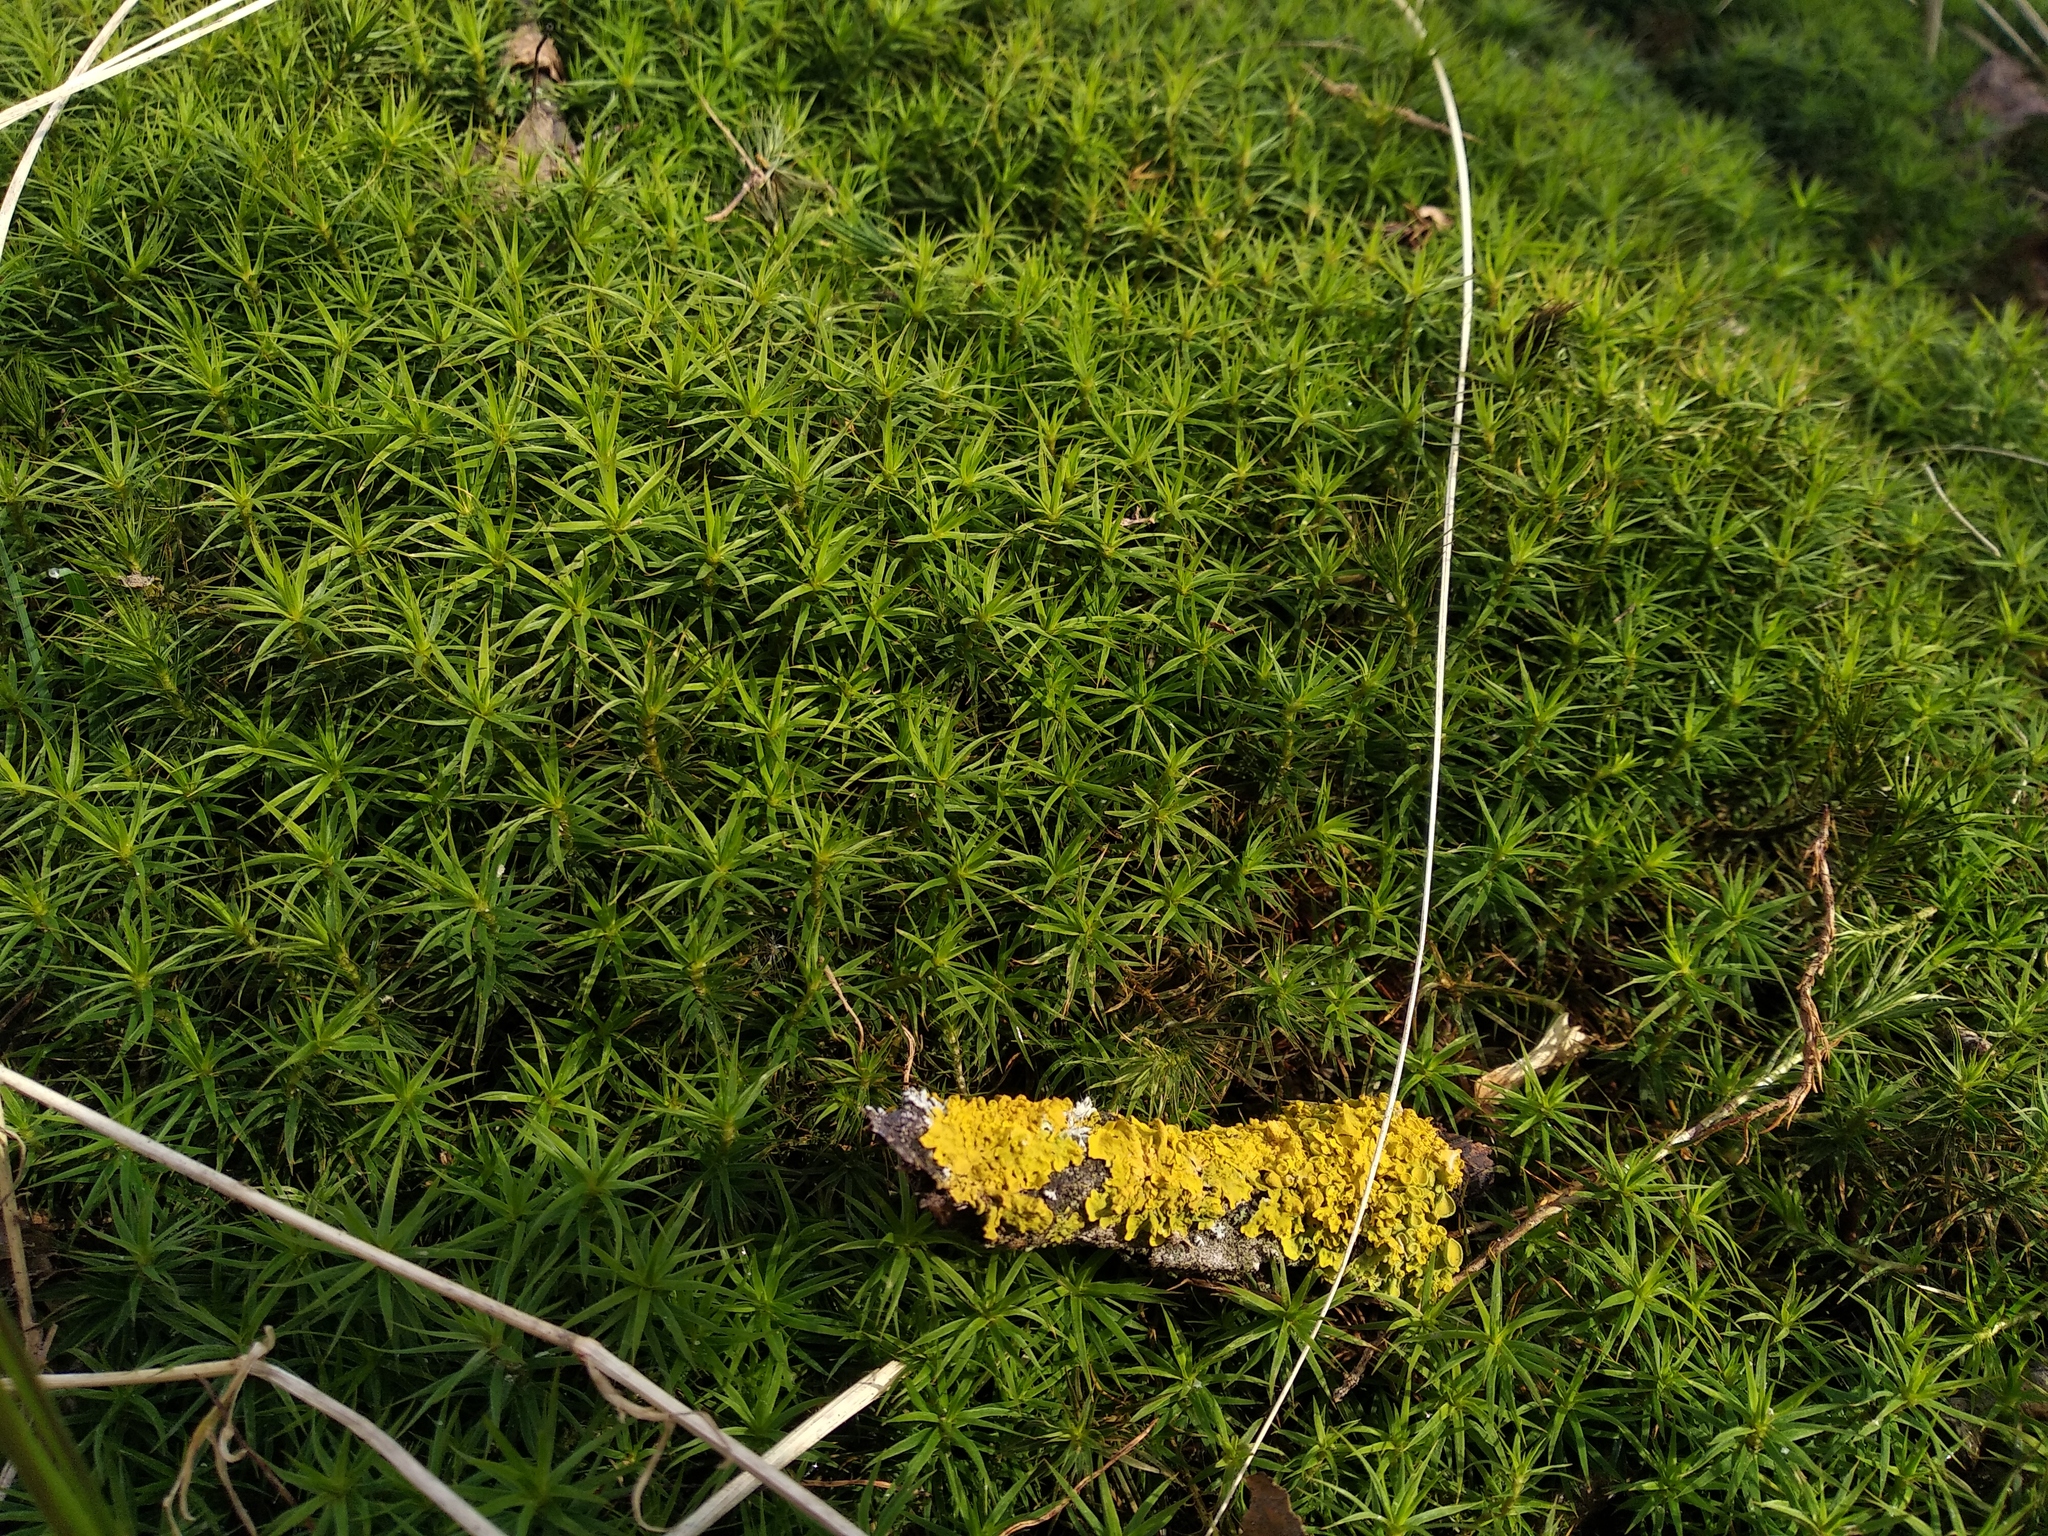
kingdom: Plantae
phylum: Bryophyta
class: Polytrichopsida
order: Polytrichales
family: Polytrichaceae
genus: Polytrichum
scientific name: Polytrichum formosum
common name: Bank haircap moss
